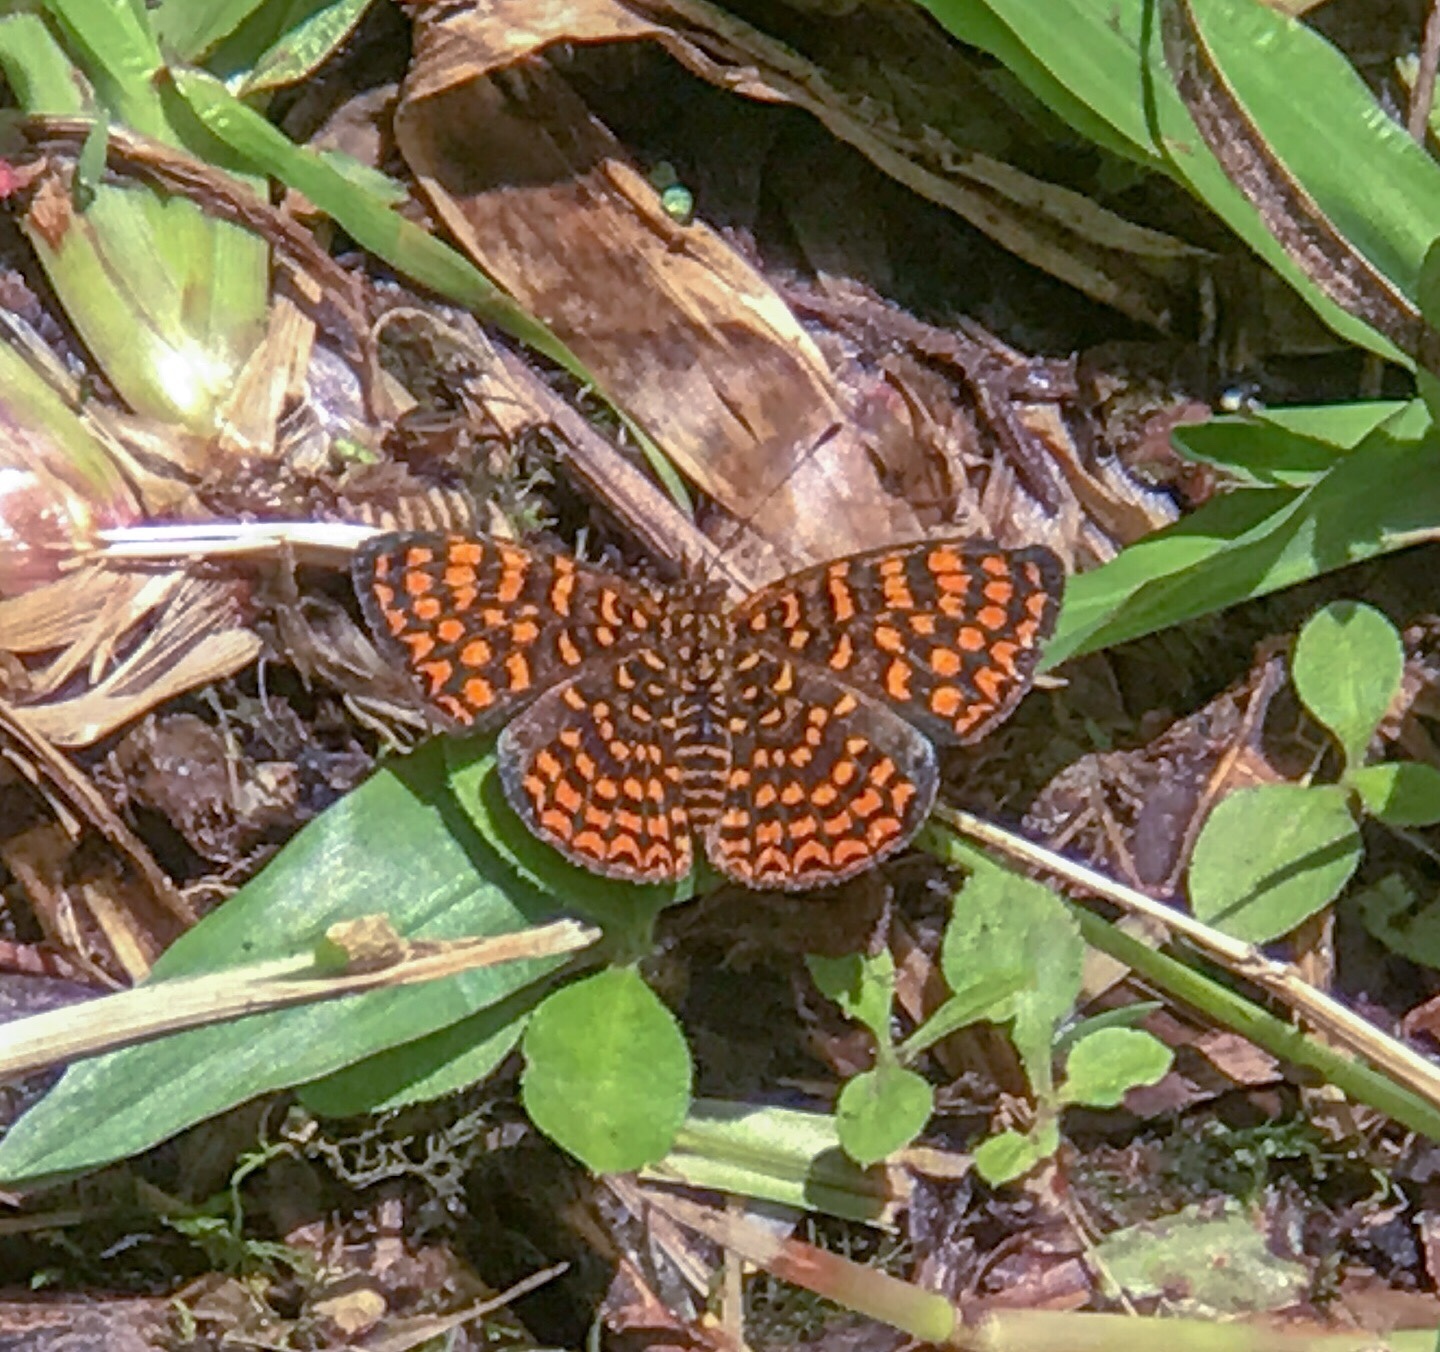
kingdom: Animalia
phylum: Arthropoda
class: Insecta
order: Lepidoptera
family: Nymphalidae
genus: Antillea
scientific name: Antillea pelops
